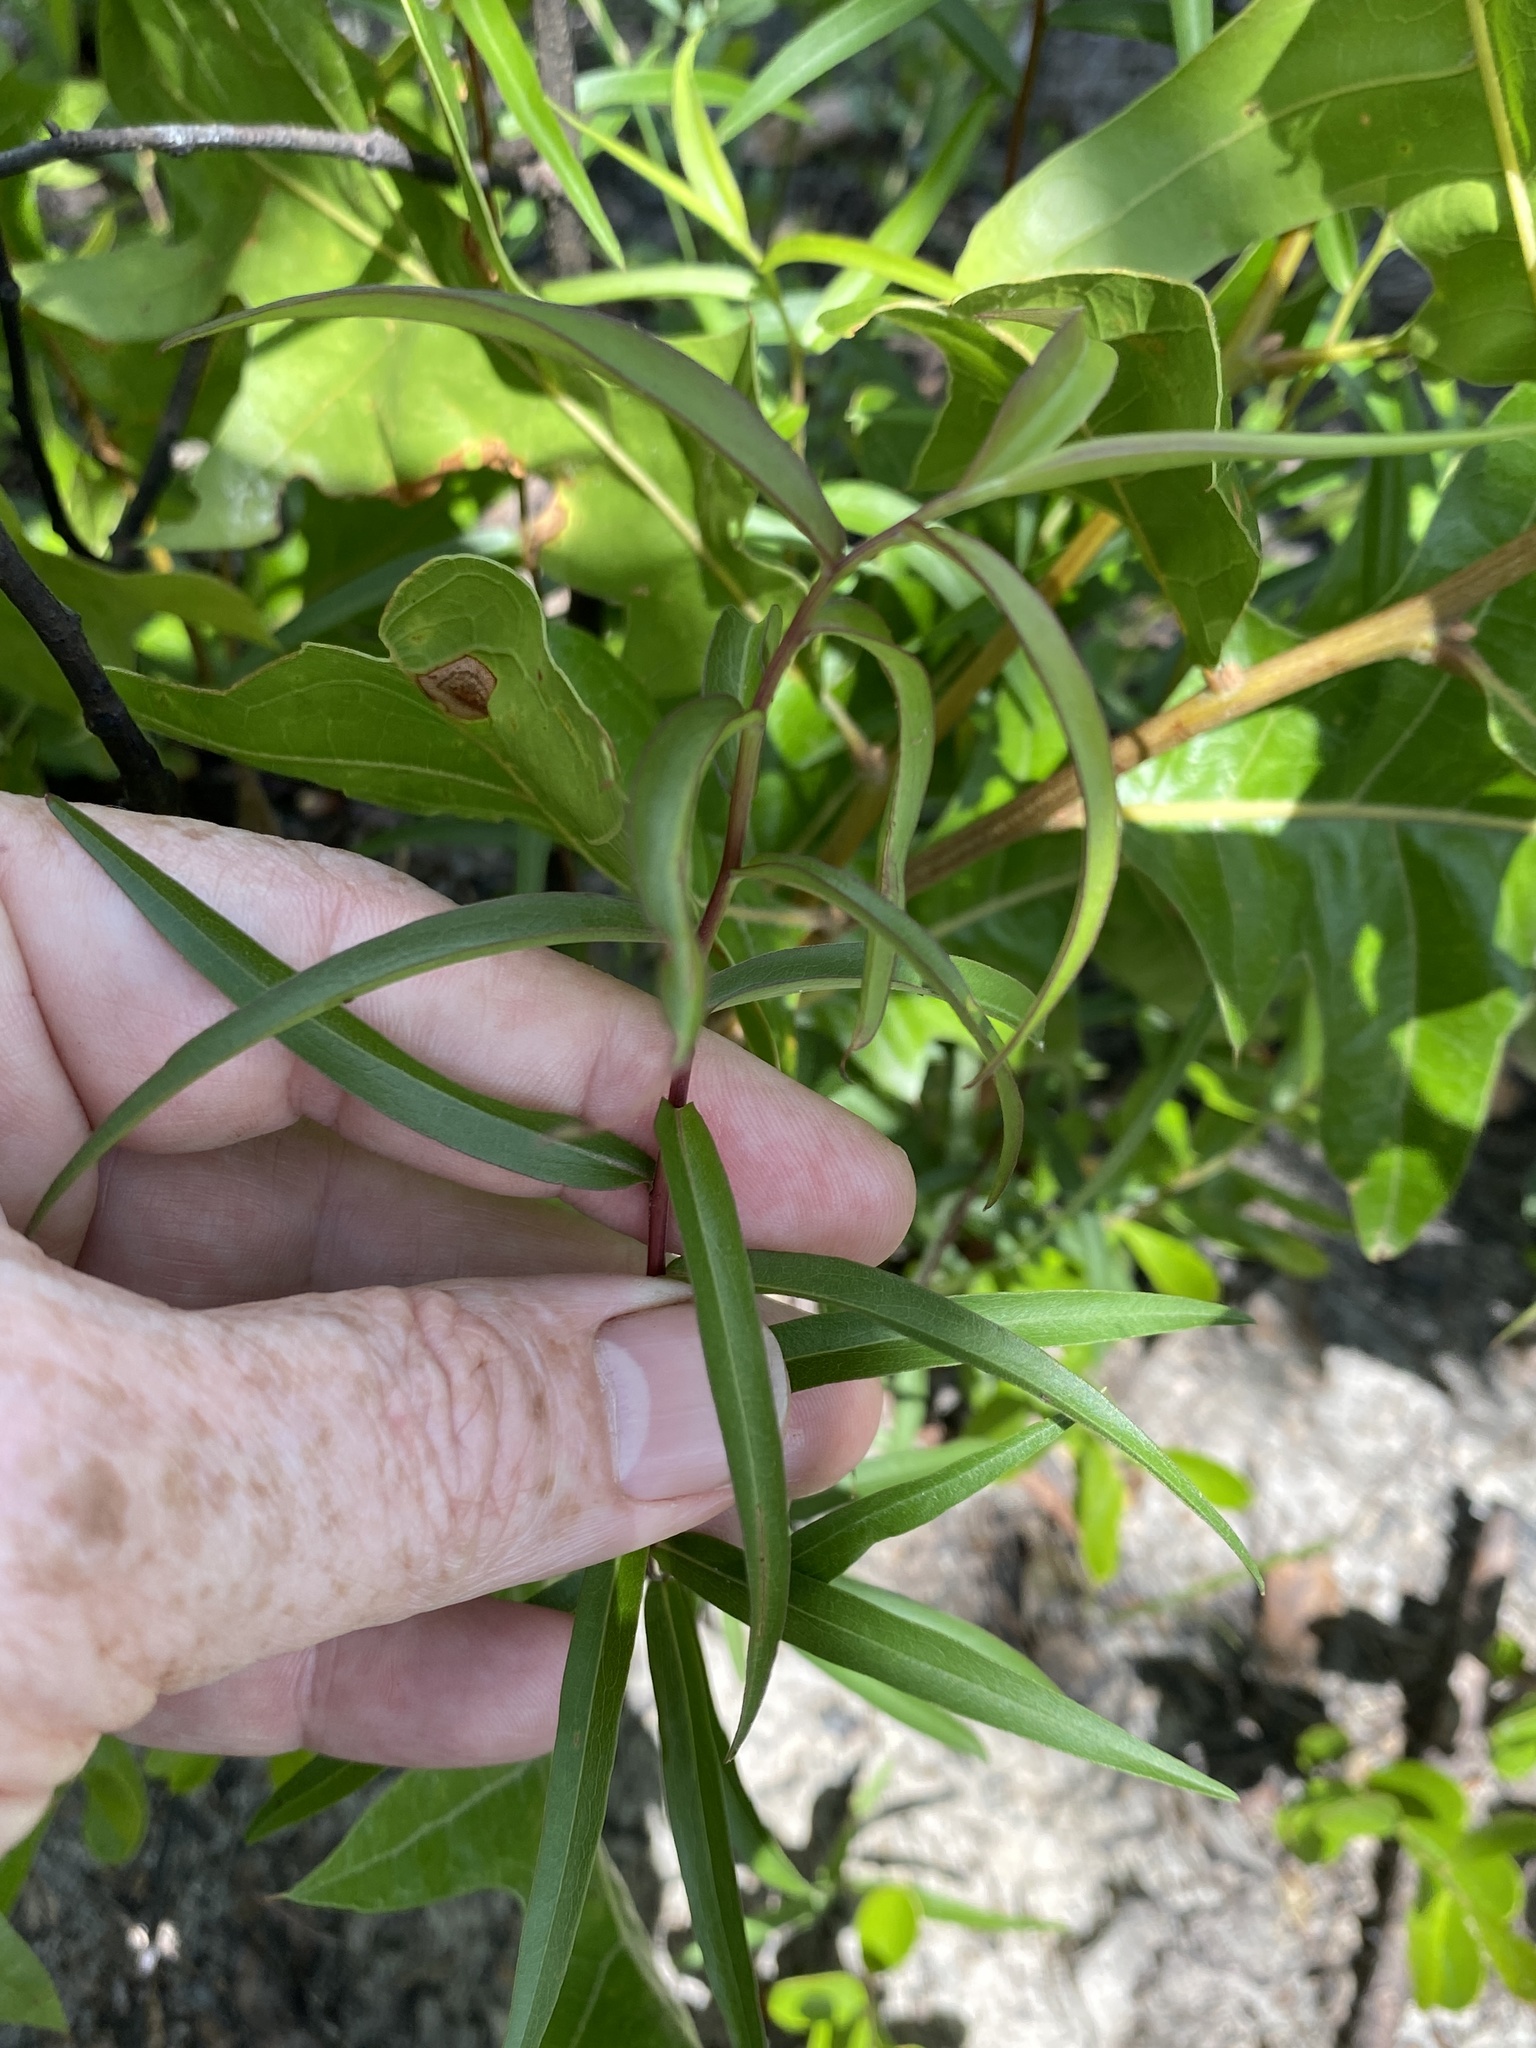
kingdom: Plantae
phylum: Tracheophyta
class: Magnoliopsida
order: Asterales
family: Asteraceae
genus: Solidago
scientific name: Solidago odora
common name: Anise-scented goldenrod
